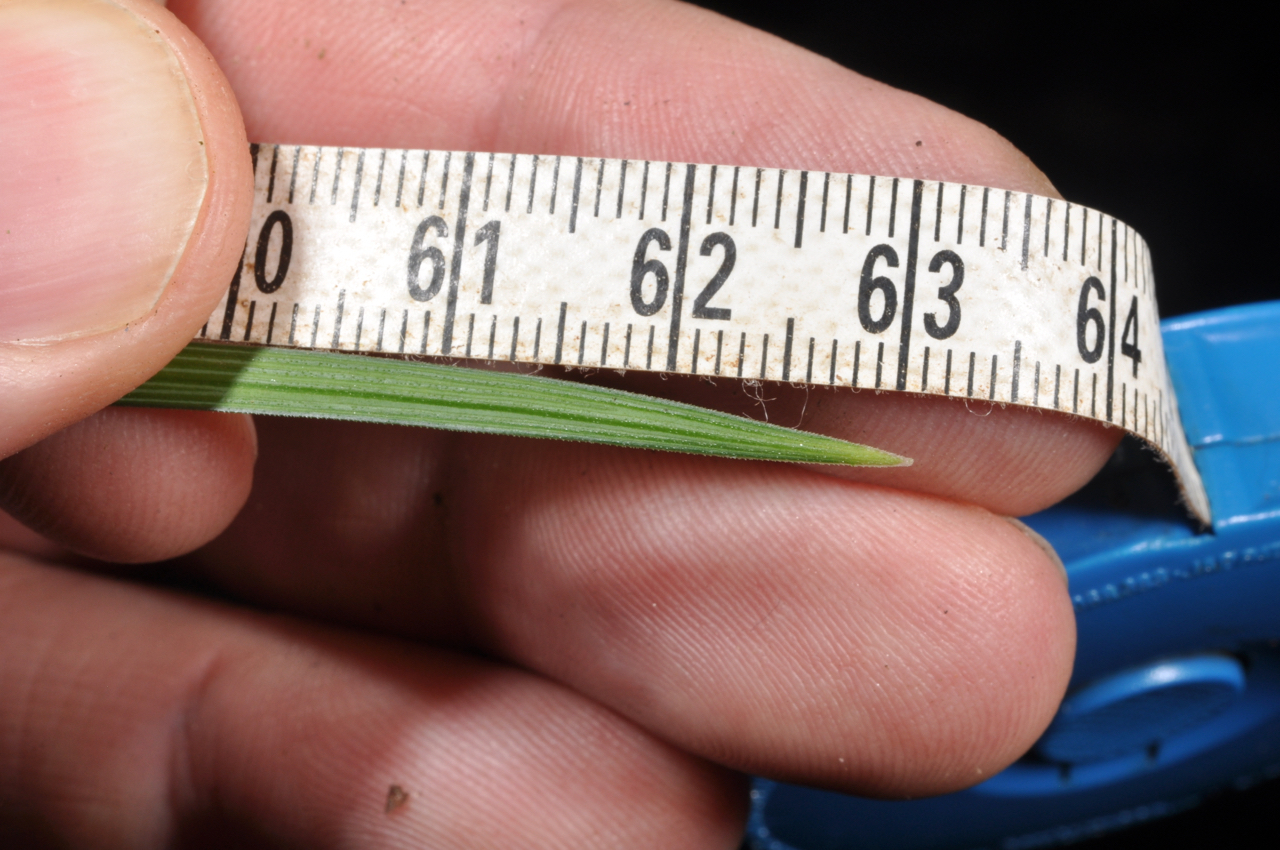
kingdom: Plantae
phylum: Tracheophyta
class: Liliopsida
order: Asparagales
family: Asparagaceae
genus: Ophiopogon
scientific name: Ophiopogon intermedius
